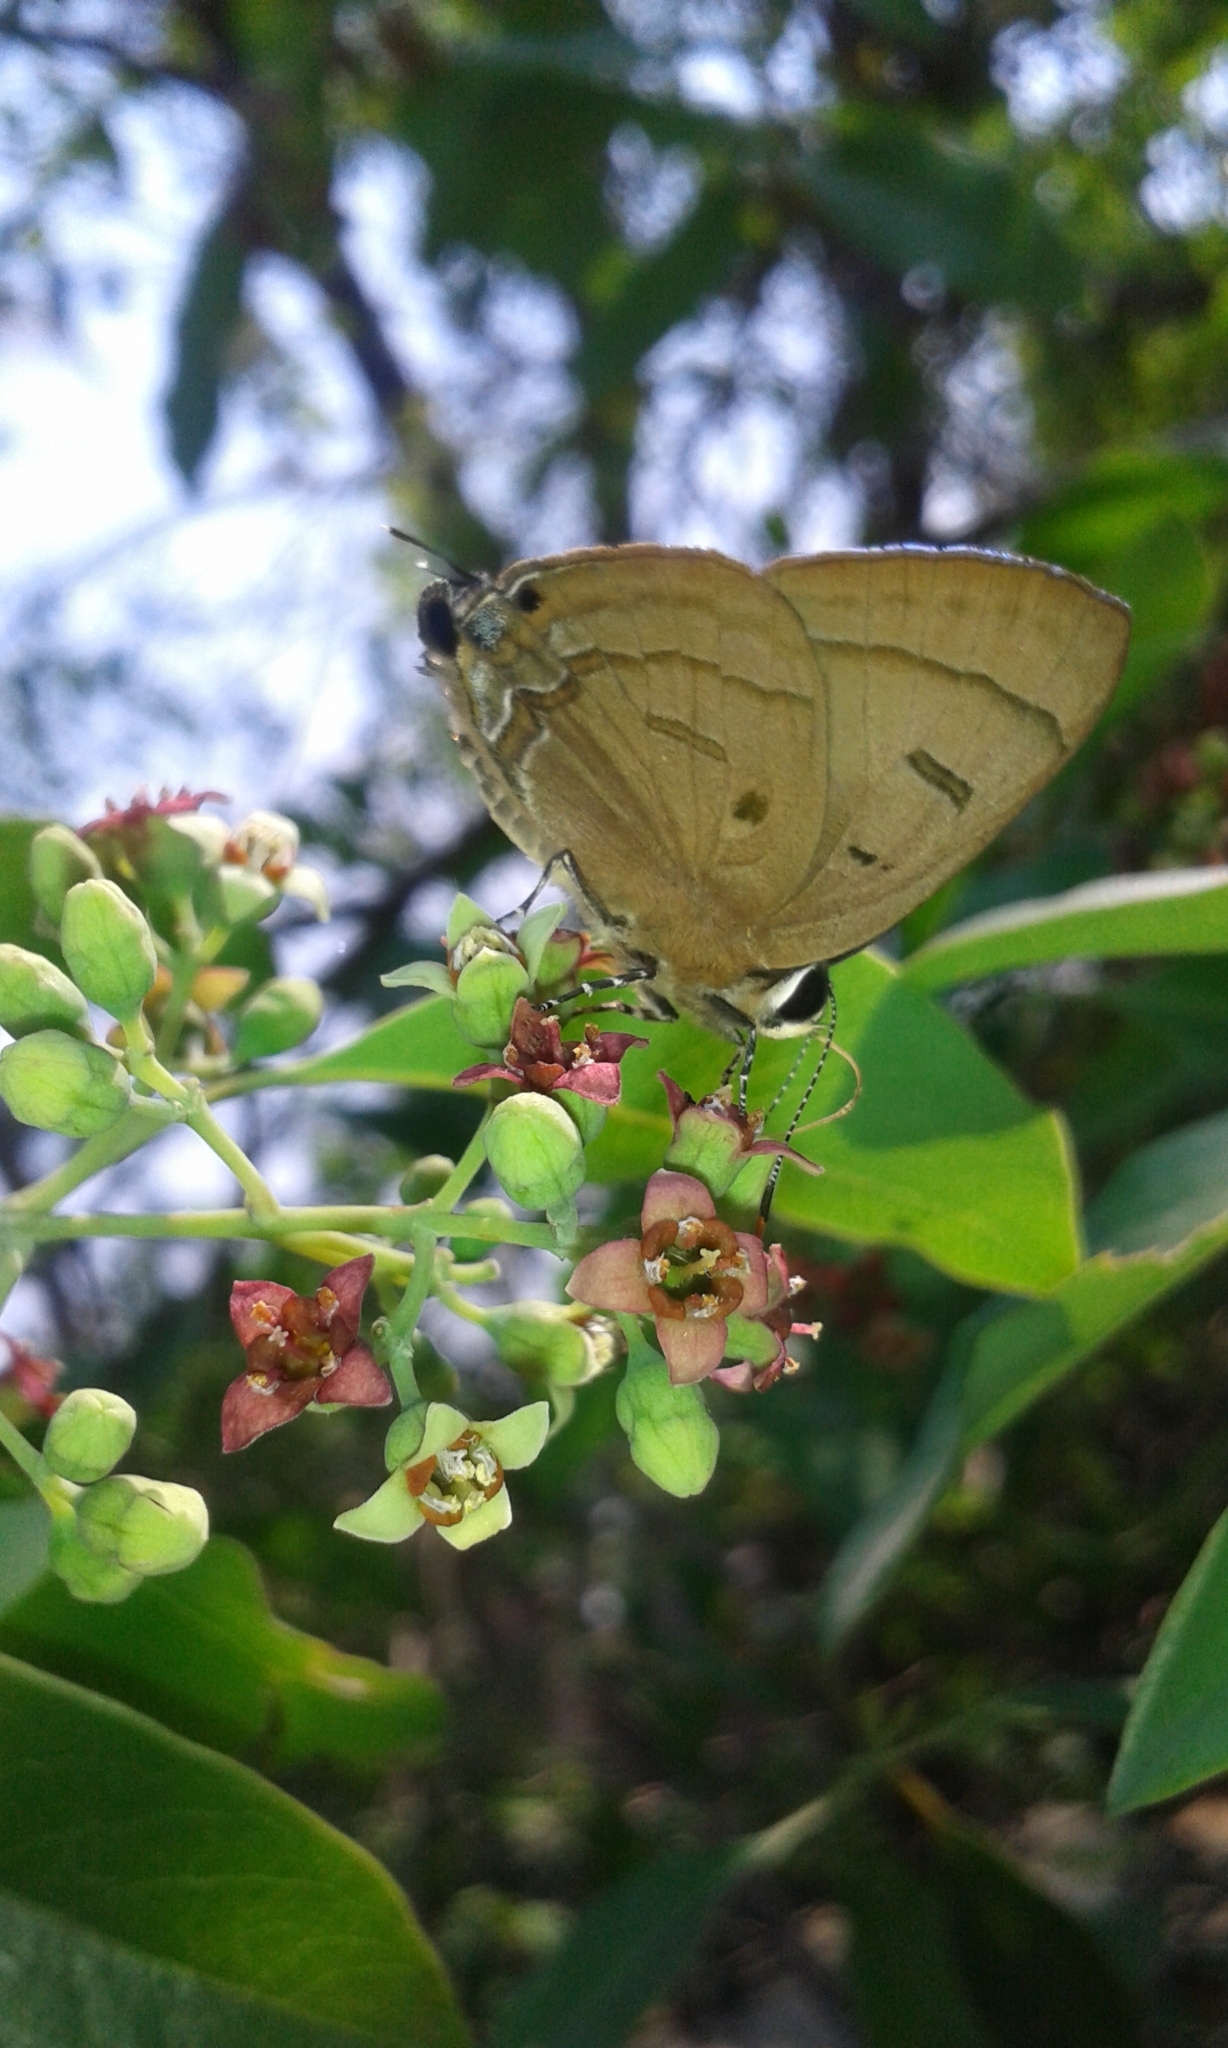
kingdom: Animalia
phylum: Arthropoda
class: Insecta
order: Lepidoptera
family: Lycaenidae
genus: Rapala
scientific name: Rapala pheretima
